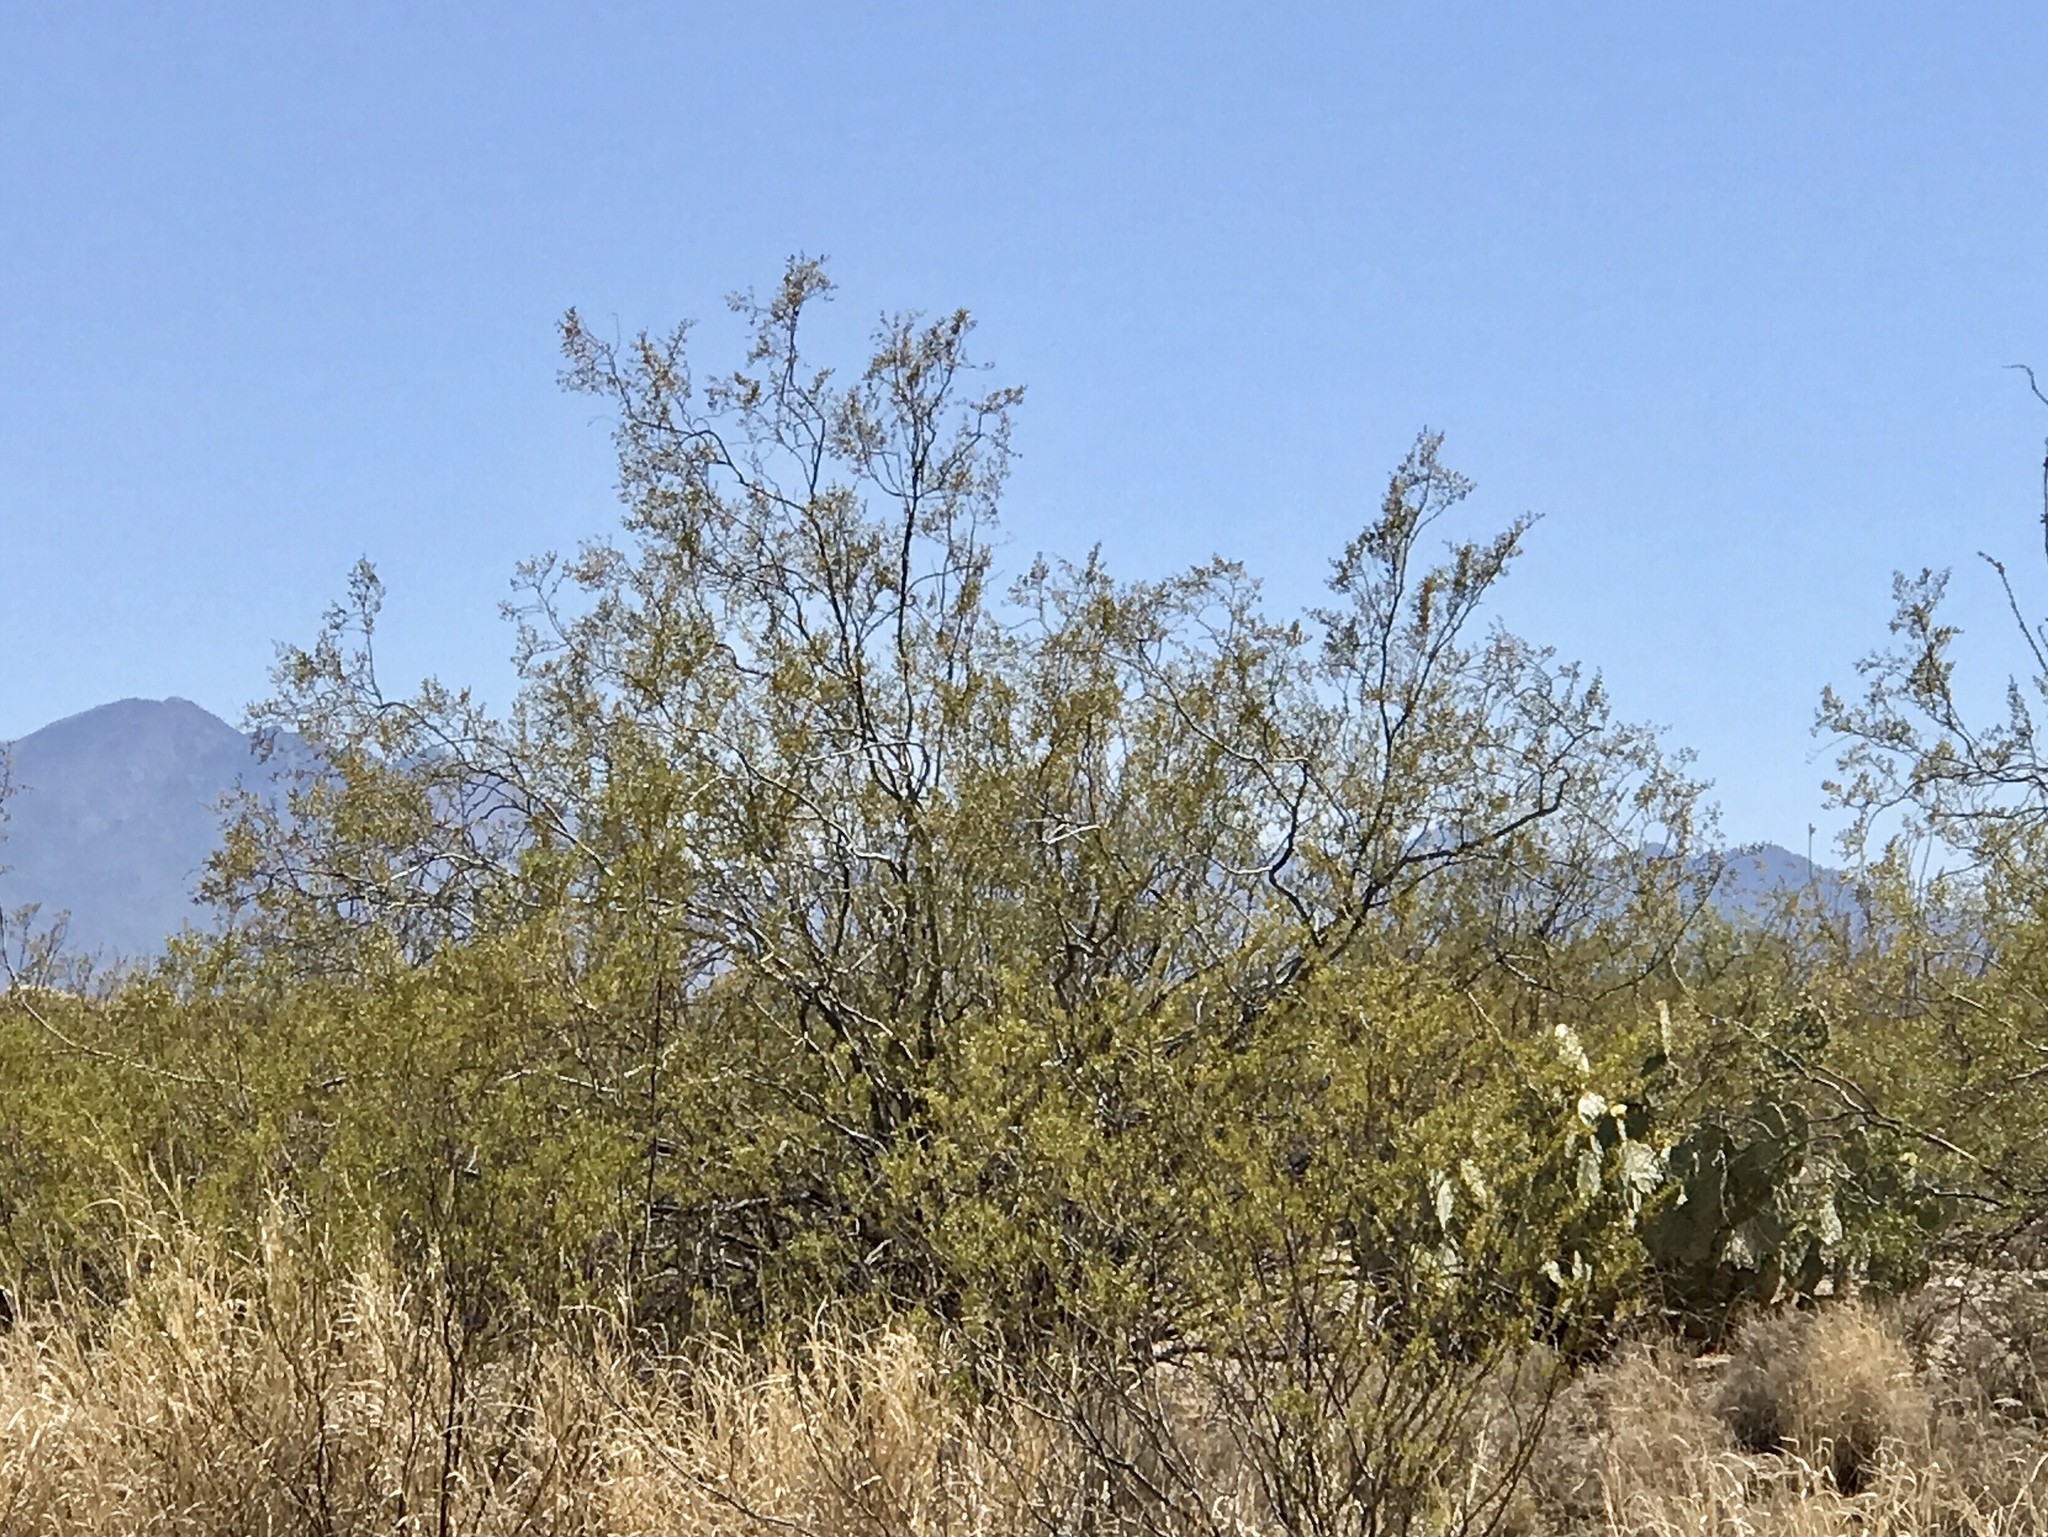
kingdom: Plantae
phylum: Tracheophyta
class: Magnoliopsida
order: Zygophyllales
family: Zygophyllaceae
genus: Larrea
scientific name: Larrea tridentata
